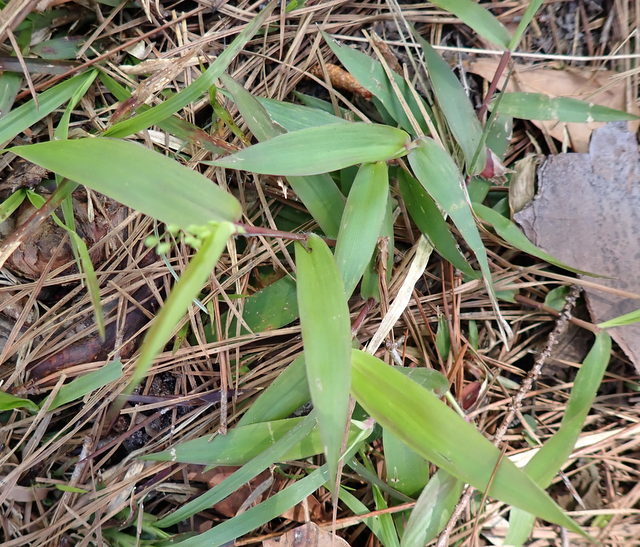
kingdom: Plantae
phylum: Tracheophyta
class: Liliopsida
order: Poales
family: Poaceae
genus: Dichanthelium
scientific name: Dichanthelium commutatum
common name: Variable witchgrass
